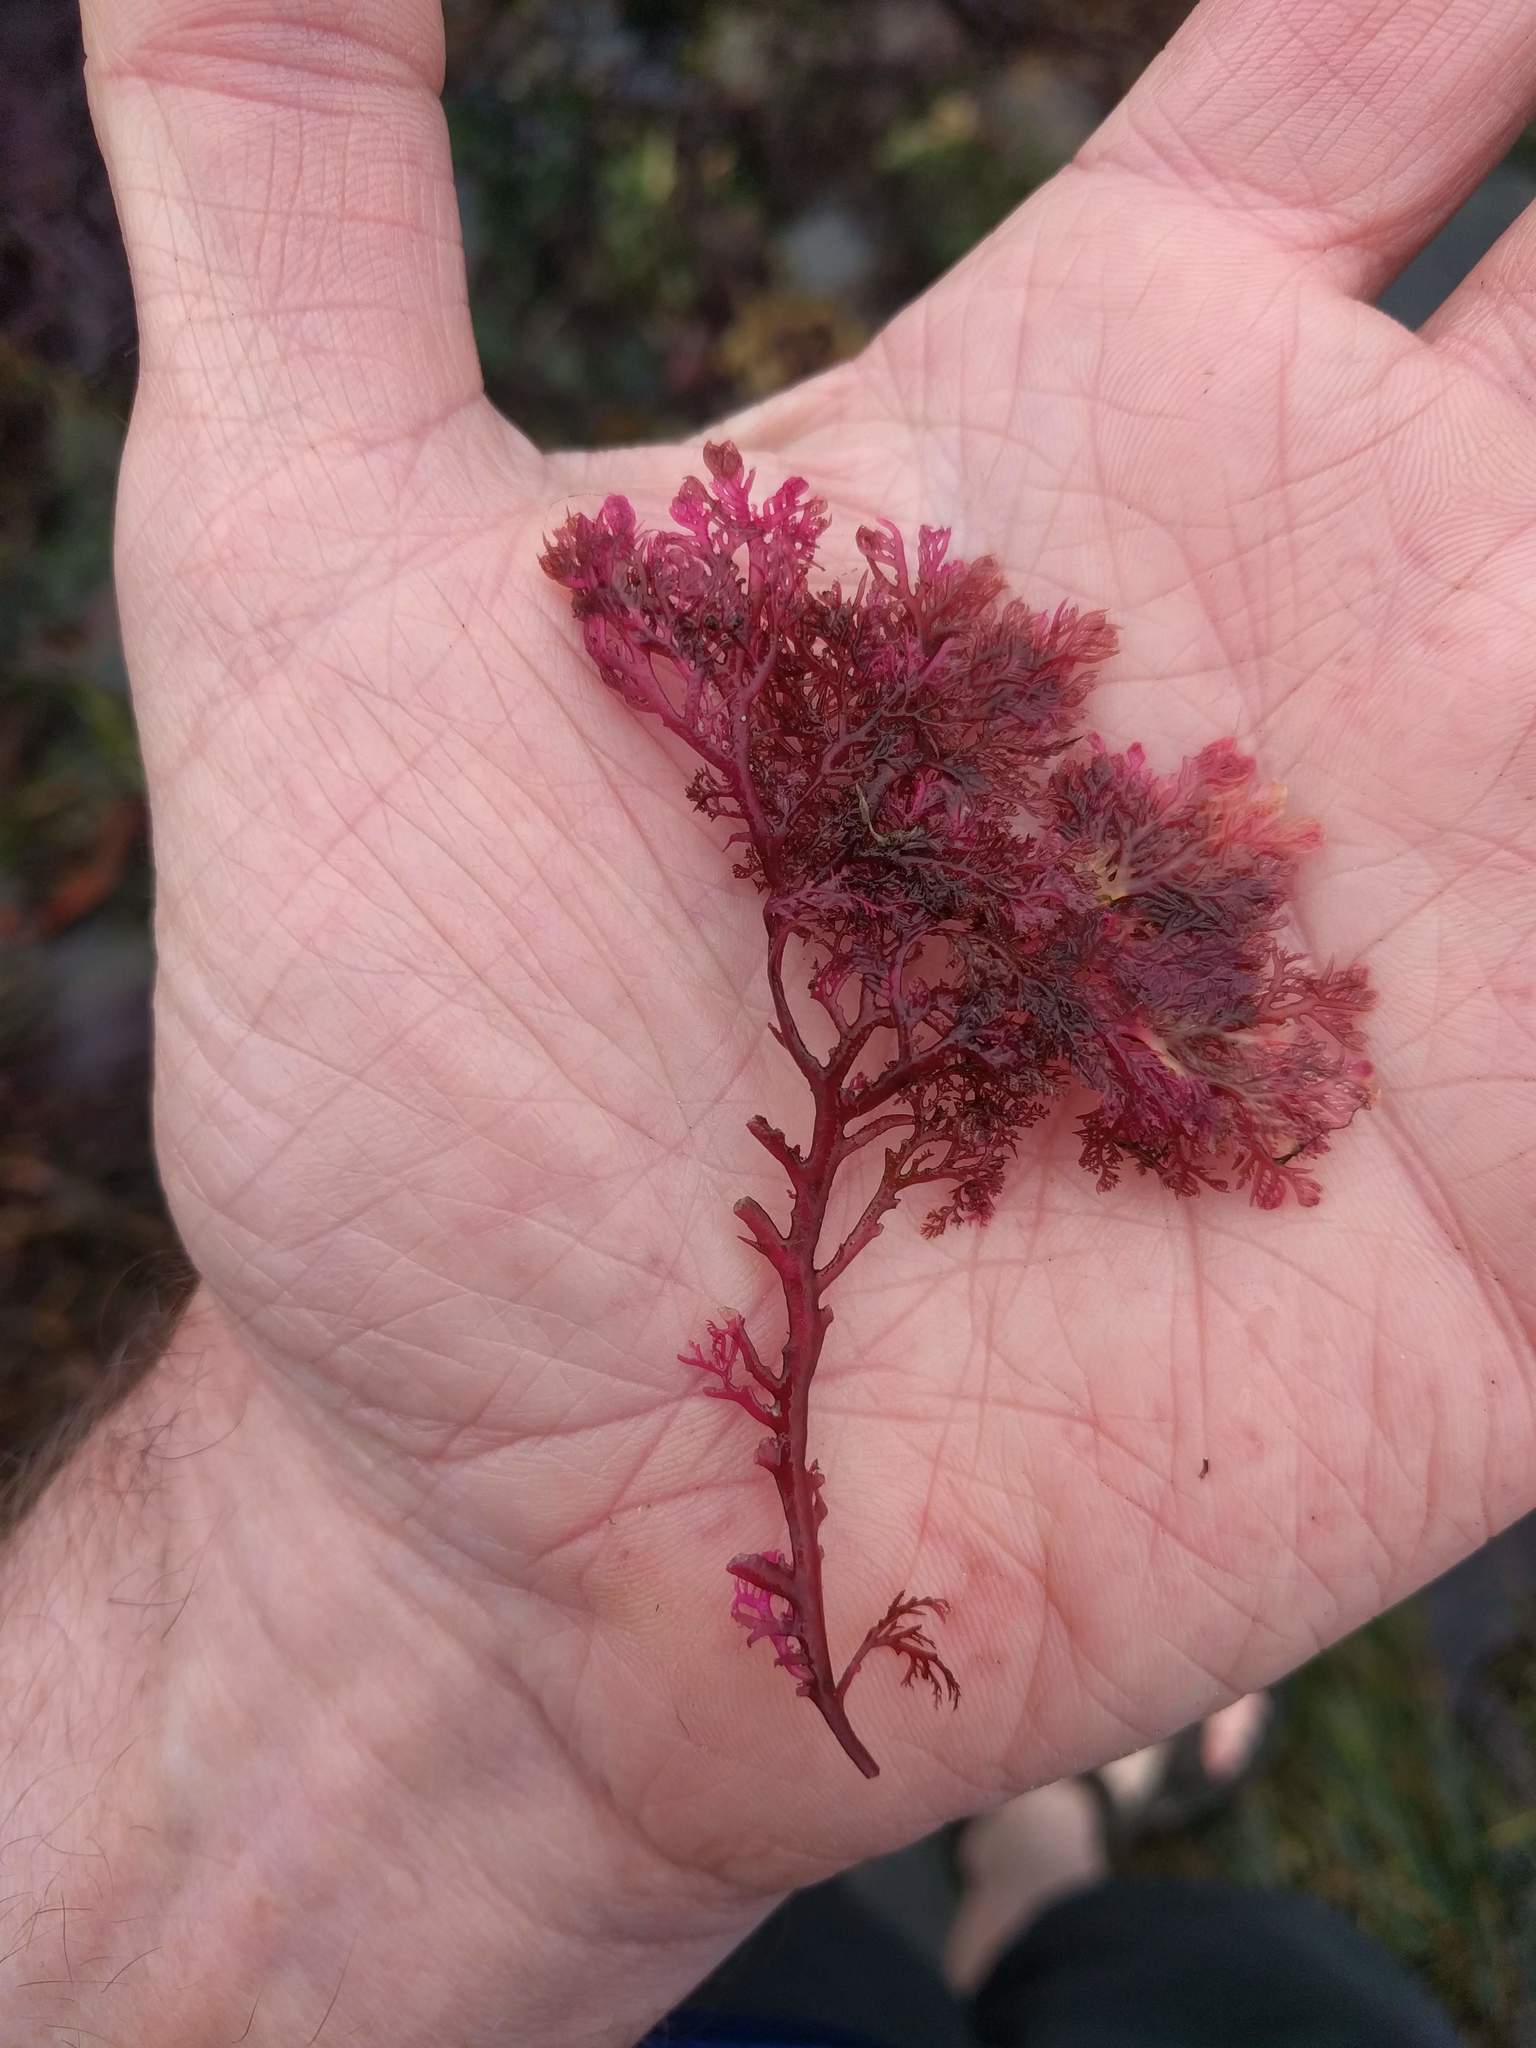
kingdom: Plantae
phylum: Rhodophyta
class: Florideophyceae
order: Plocamiales
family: Plocamiaceae
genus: Plocamium
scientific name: Plocamium cartilagineum
